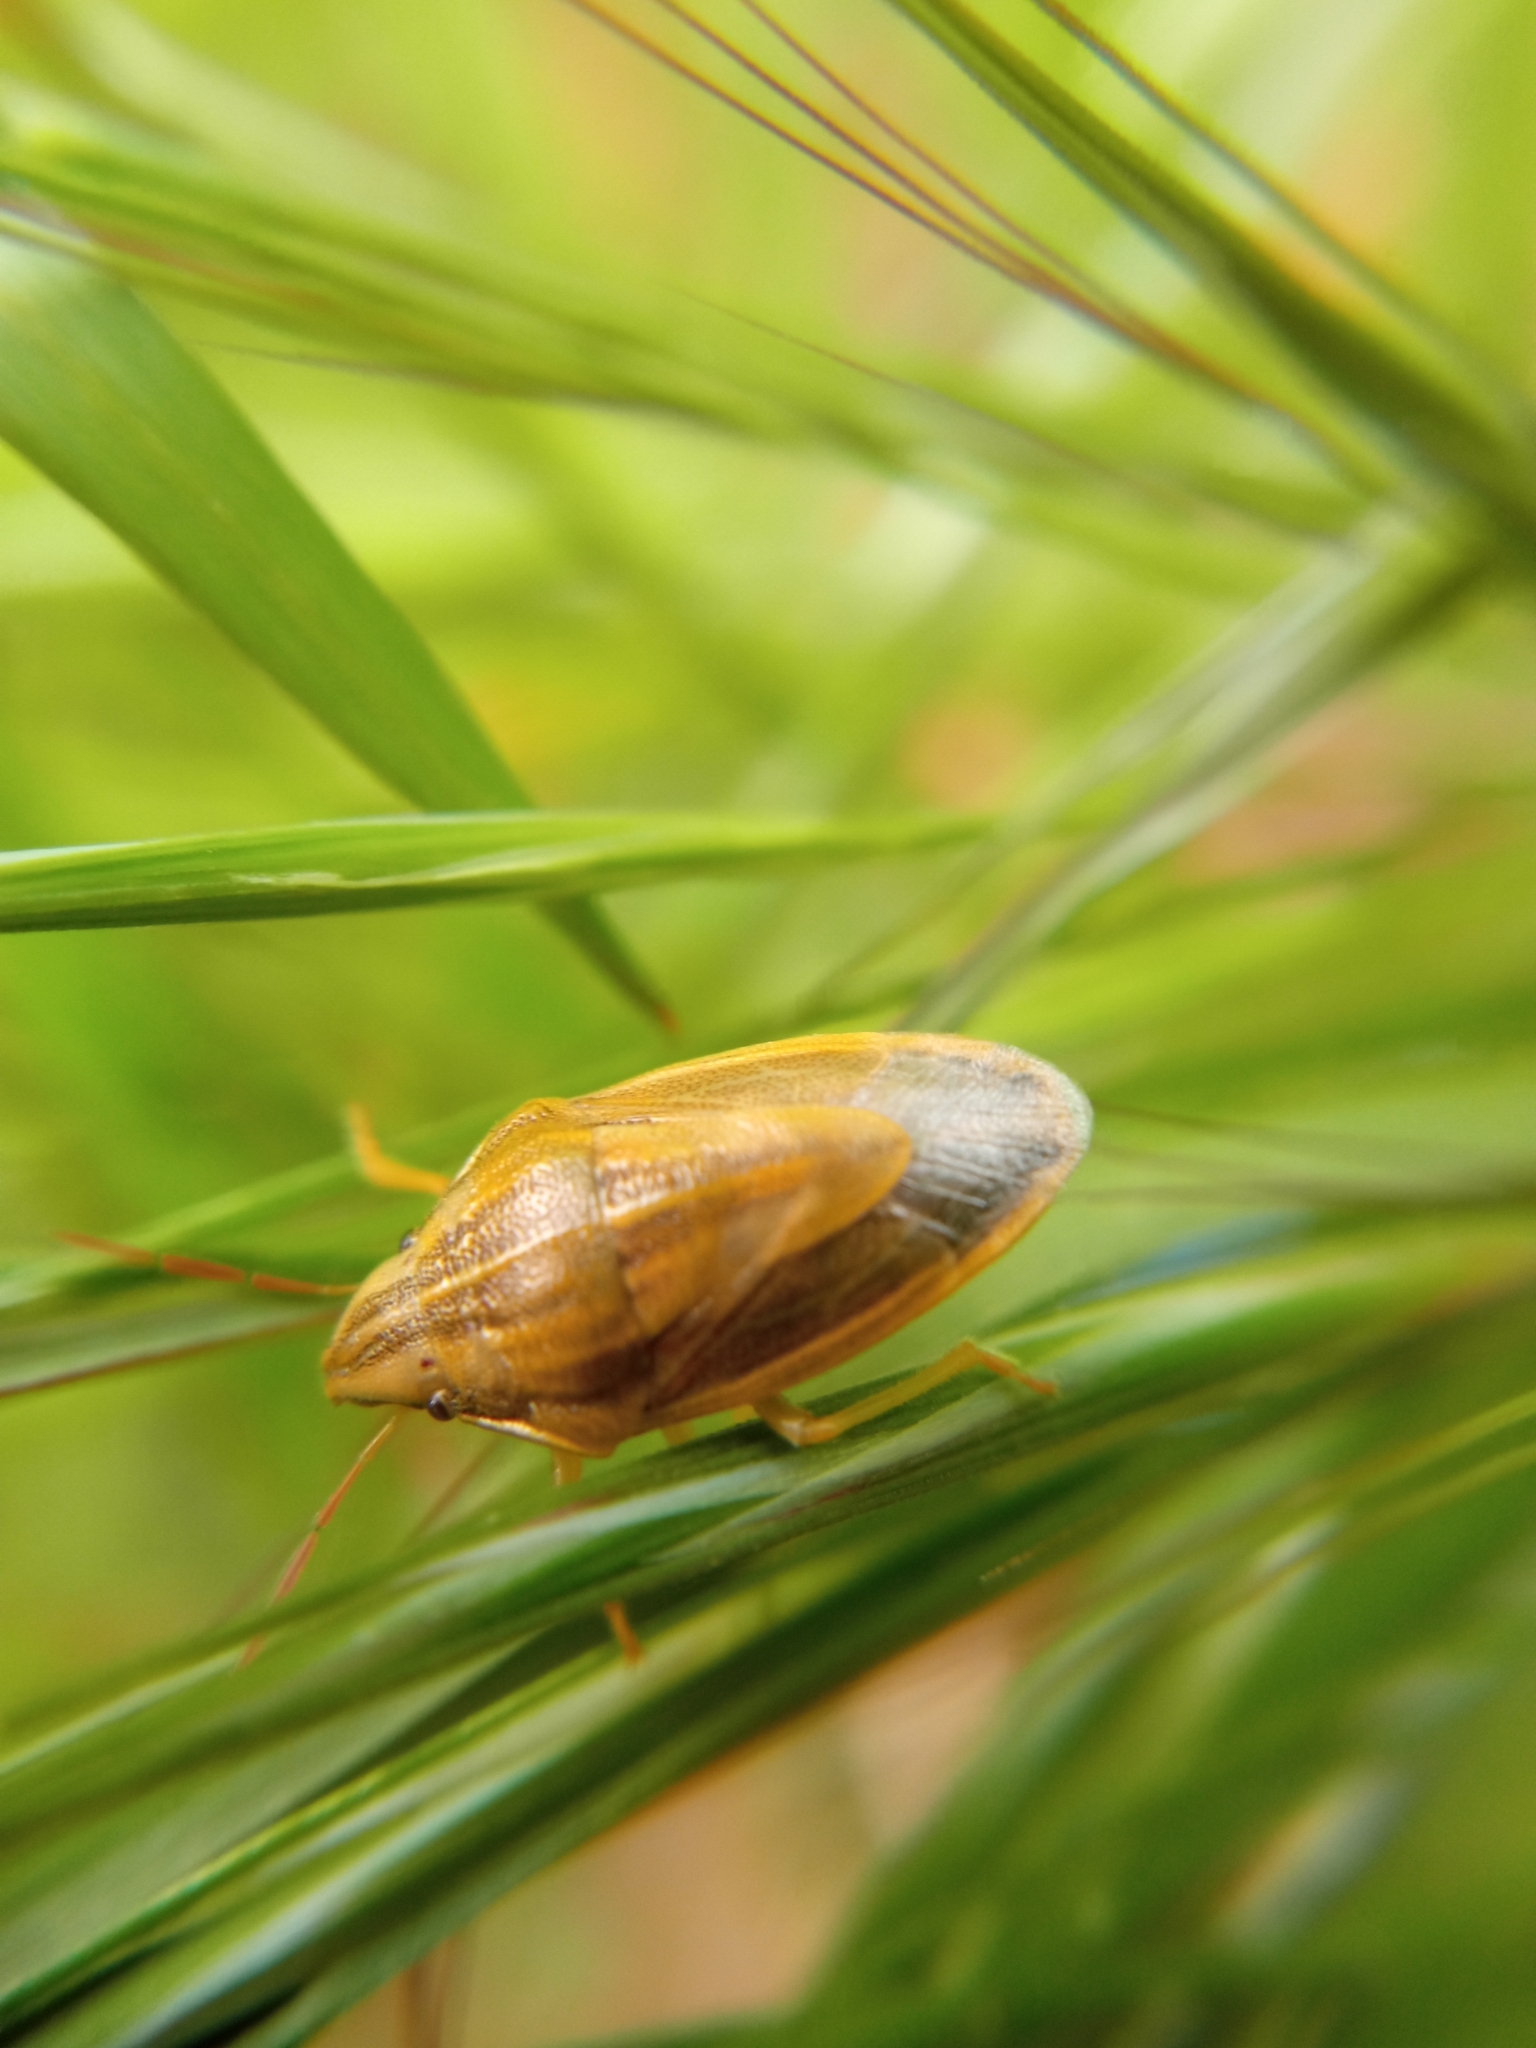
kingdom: Animalia
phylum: Arthropoda
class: Insecta
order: Hemiptera
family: Pentatomidae
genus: Aelia
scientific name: Aelia acuminata
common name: Bishop's mitre
